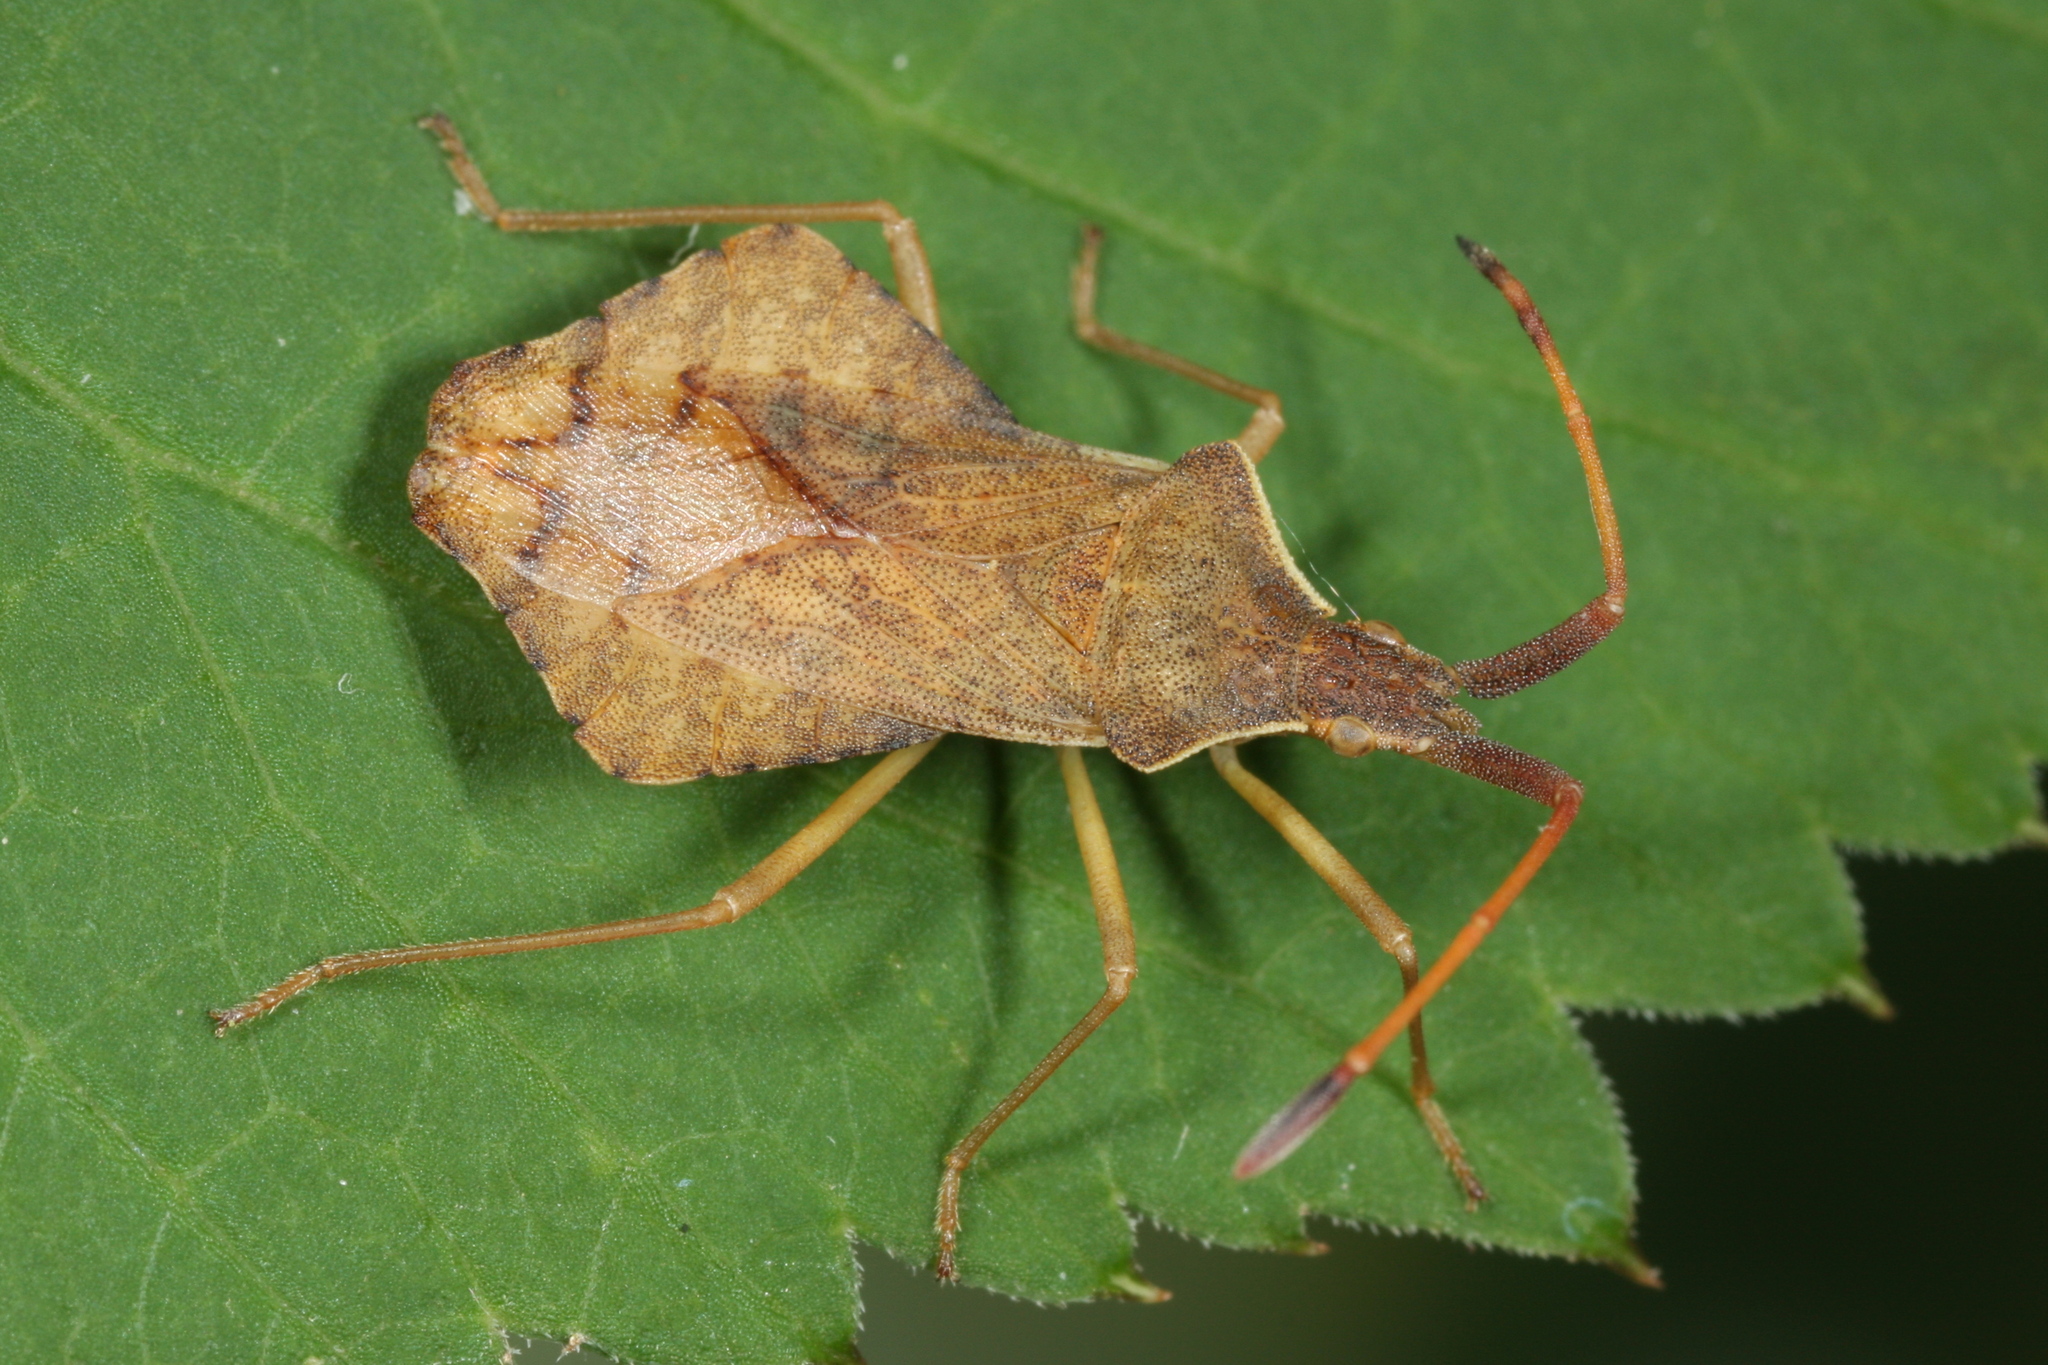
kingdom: Animalia
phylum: Arthropoda
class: Insecta
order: Hemiptera
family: Coreidae
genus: Syromastus
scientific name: Syromastus rhombeus
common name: Rhombic leatherbug
